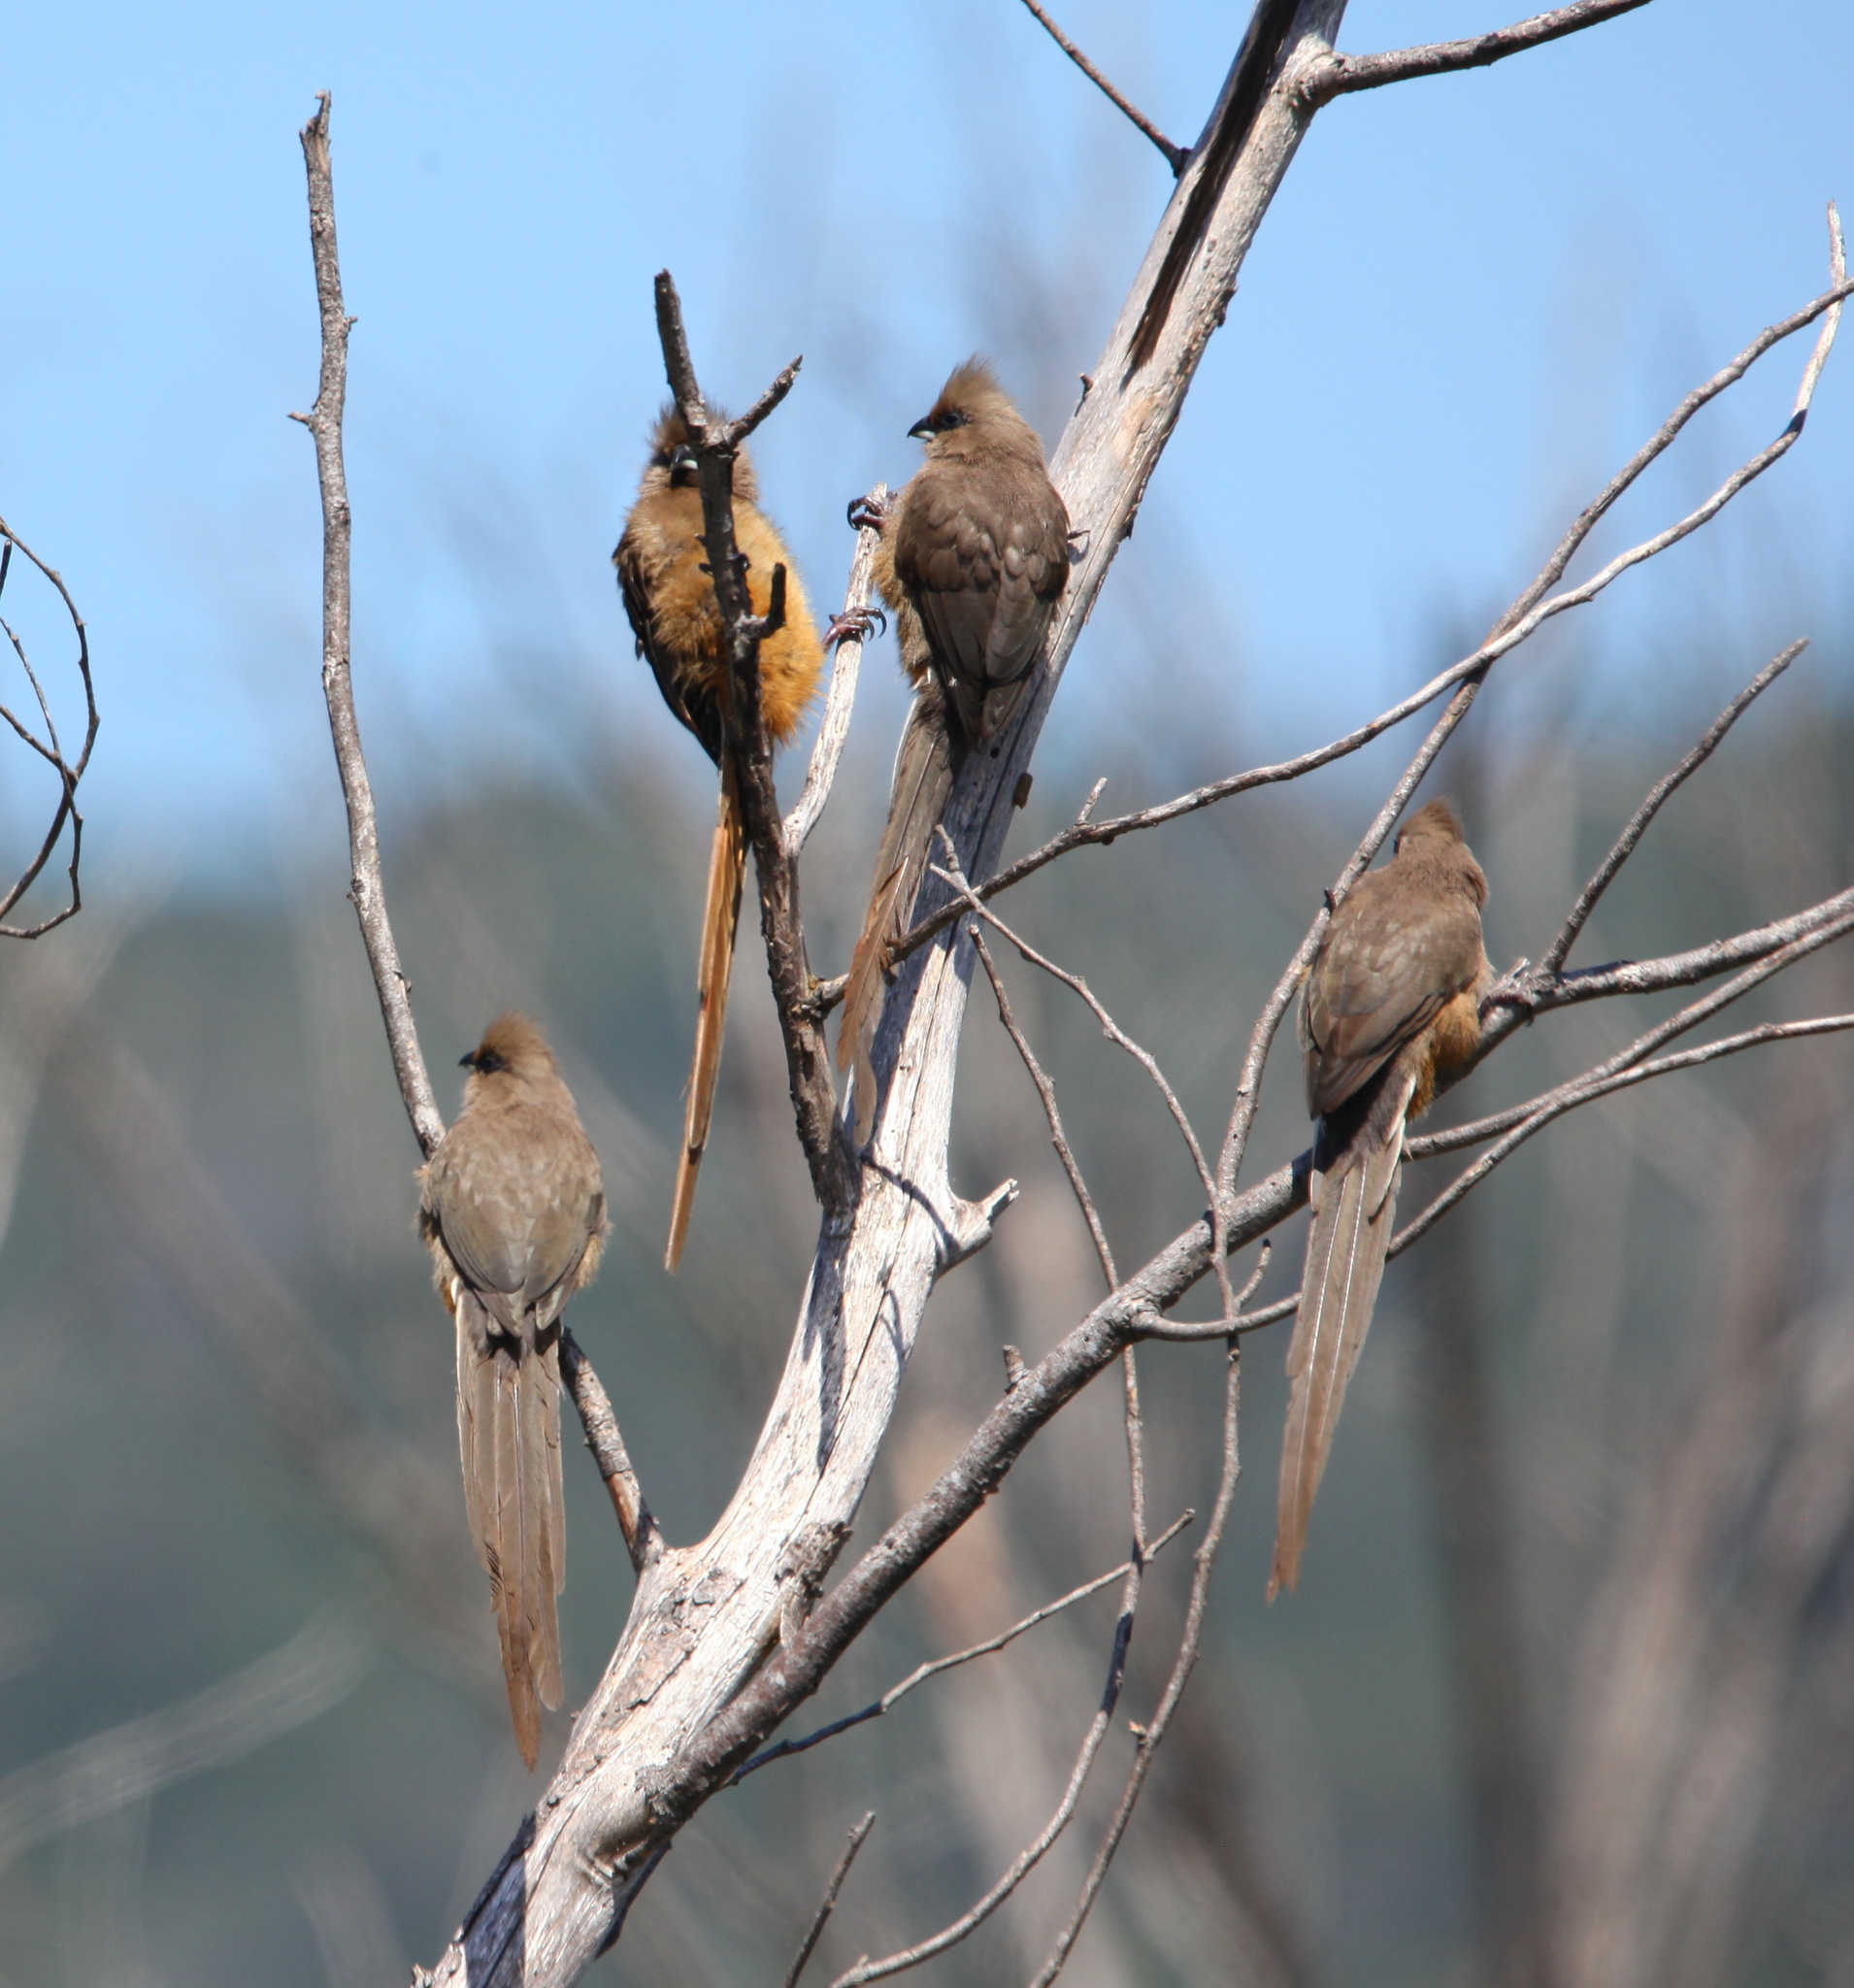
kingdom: Animalia
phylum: Chordata
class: Aves
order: Coliiformes
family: Coliidae
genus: Colius
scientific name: Colius striatus
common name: Speckled mousebird
